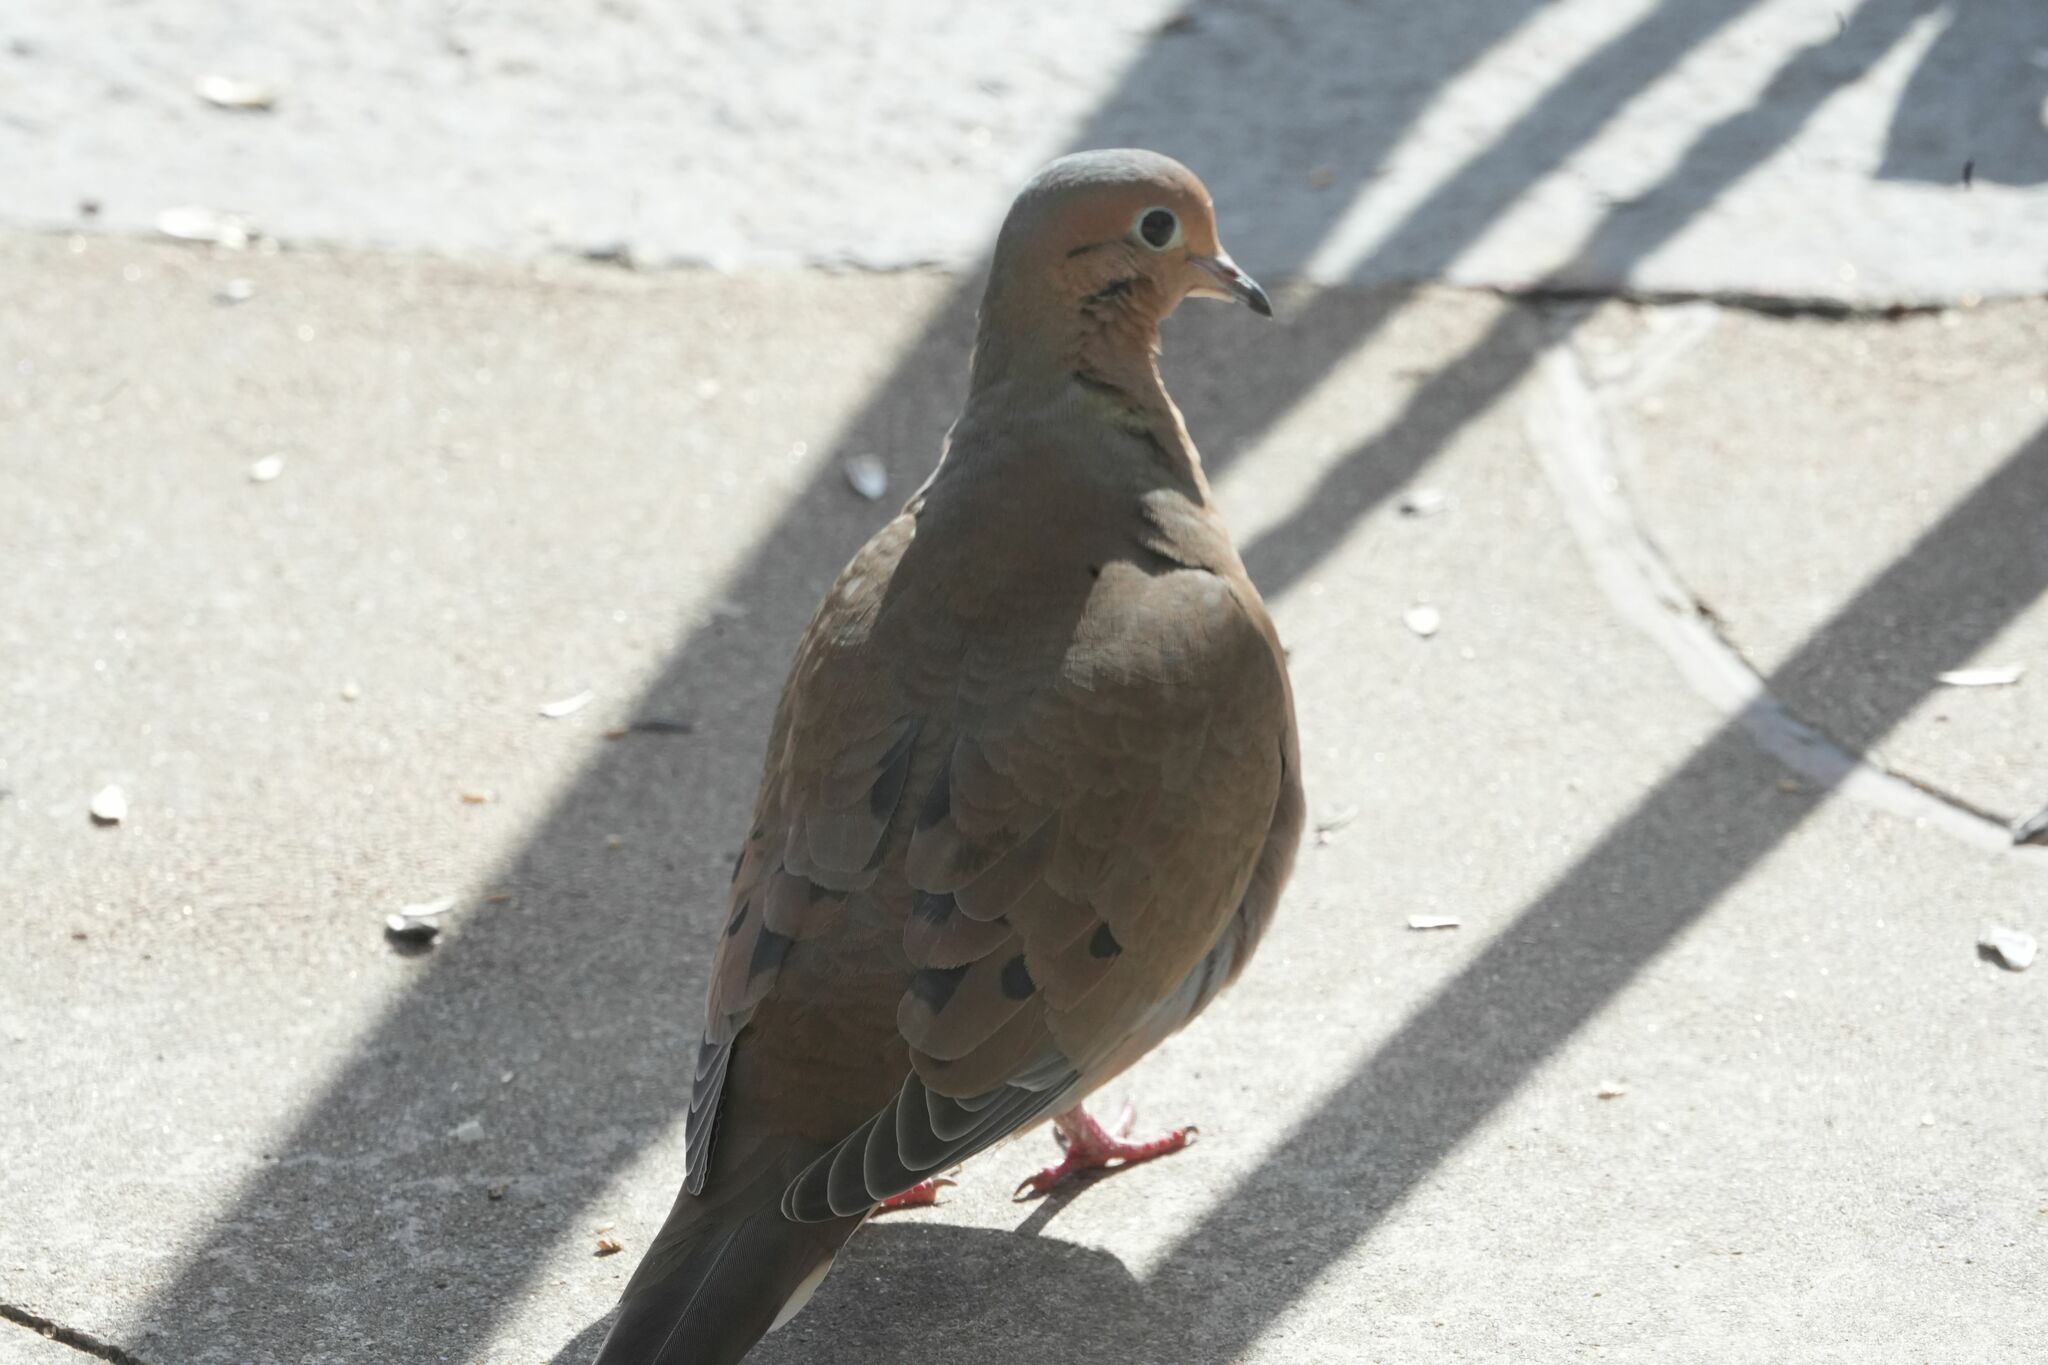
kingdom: Animalia
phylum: Chordata
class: Aves
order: Columbiformes
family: Columbidae
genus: Zenaida
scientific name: Zenaida macroura
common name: Mourning dove
